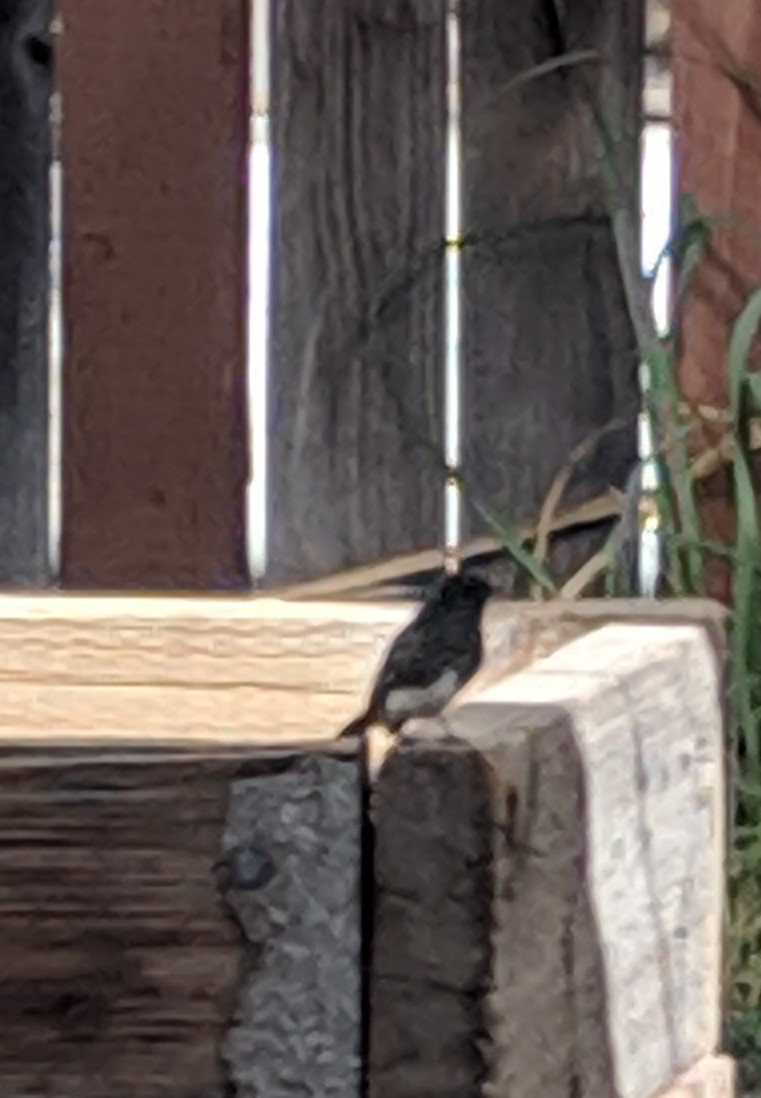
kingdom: Animalia
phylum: Chordata
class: Aves
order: Passeriformes
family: Tyrannidae
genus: Sayornis
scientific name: Sayornis nigricans
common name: Black phoebe
